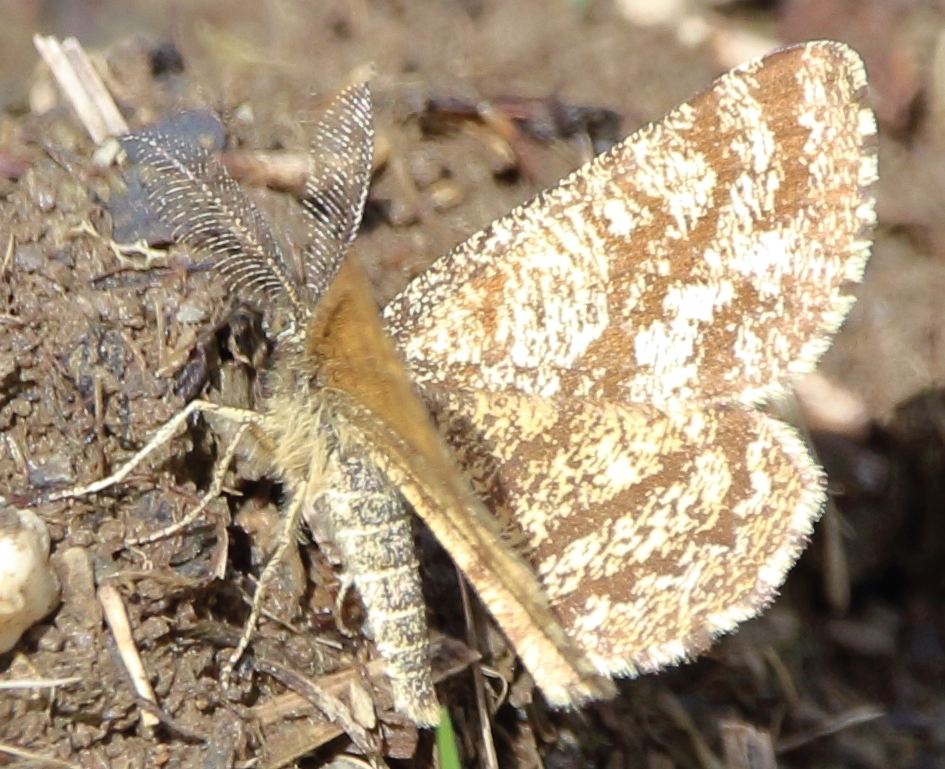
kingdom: Animalia
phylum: Arthropoda
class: Insecta
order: Lepidoptera
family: Geometridae
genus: Ematurga
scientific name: Ematurga atomaria
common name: Common heath
